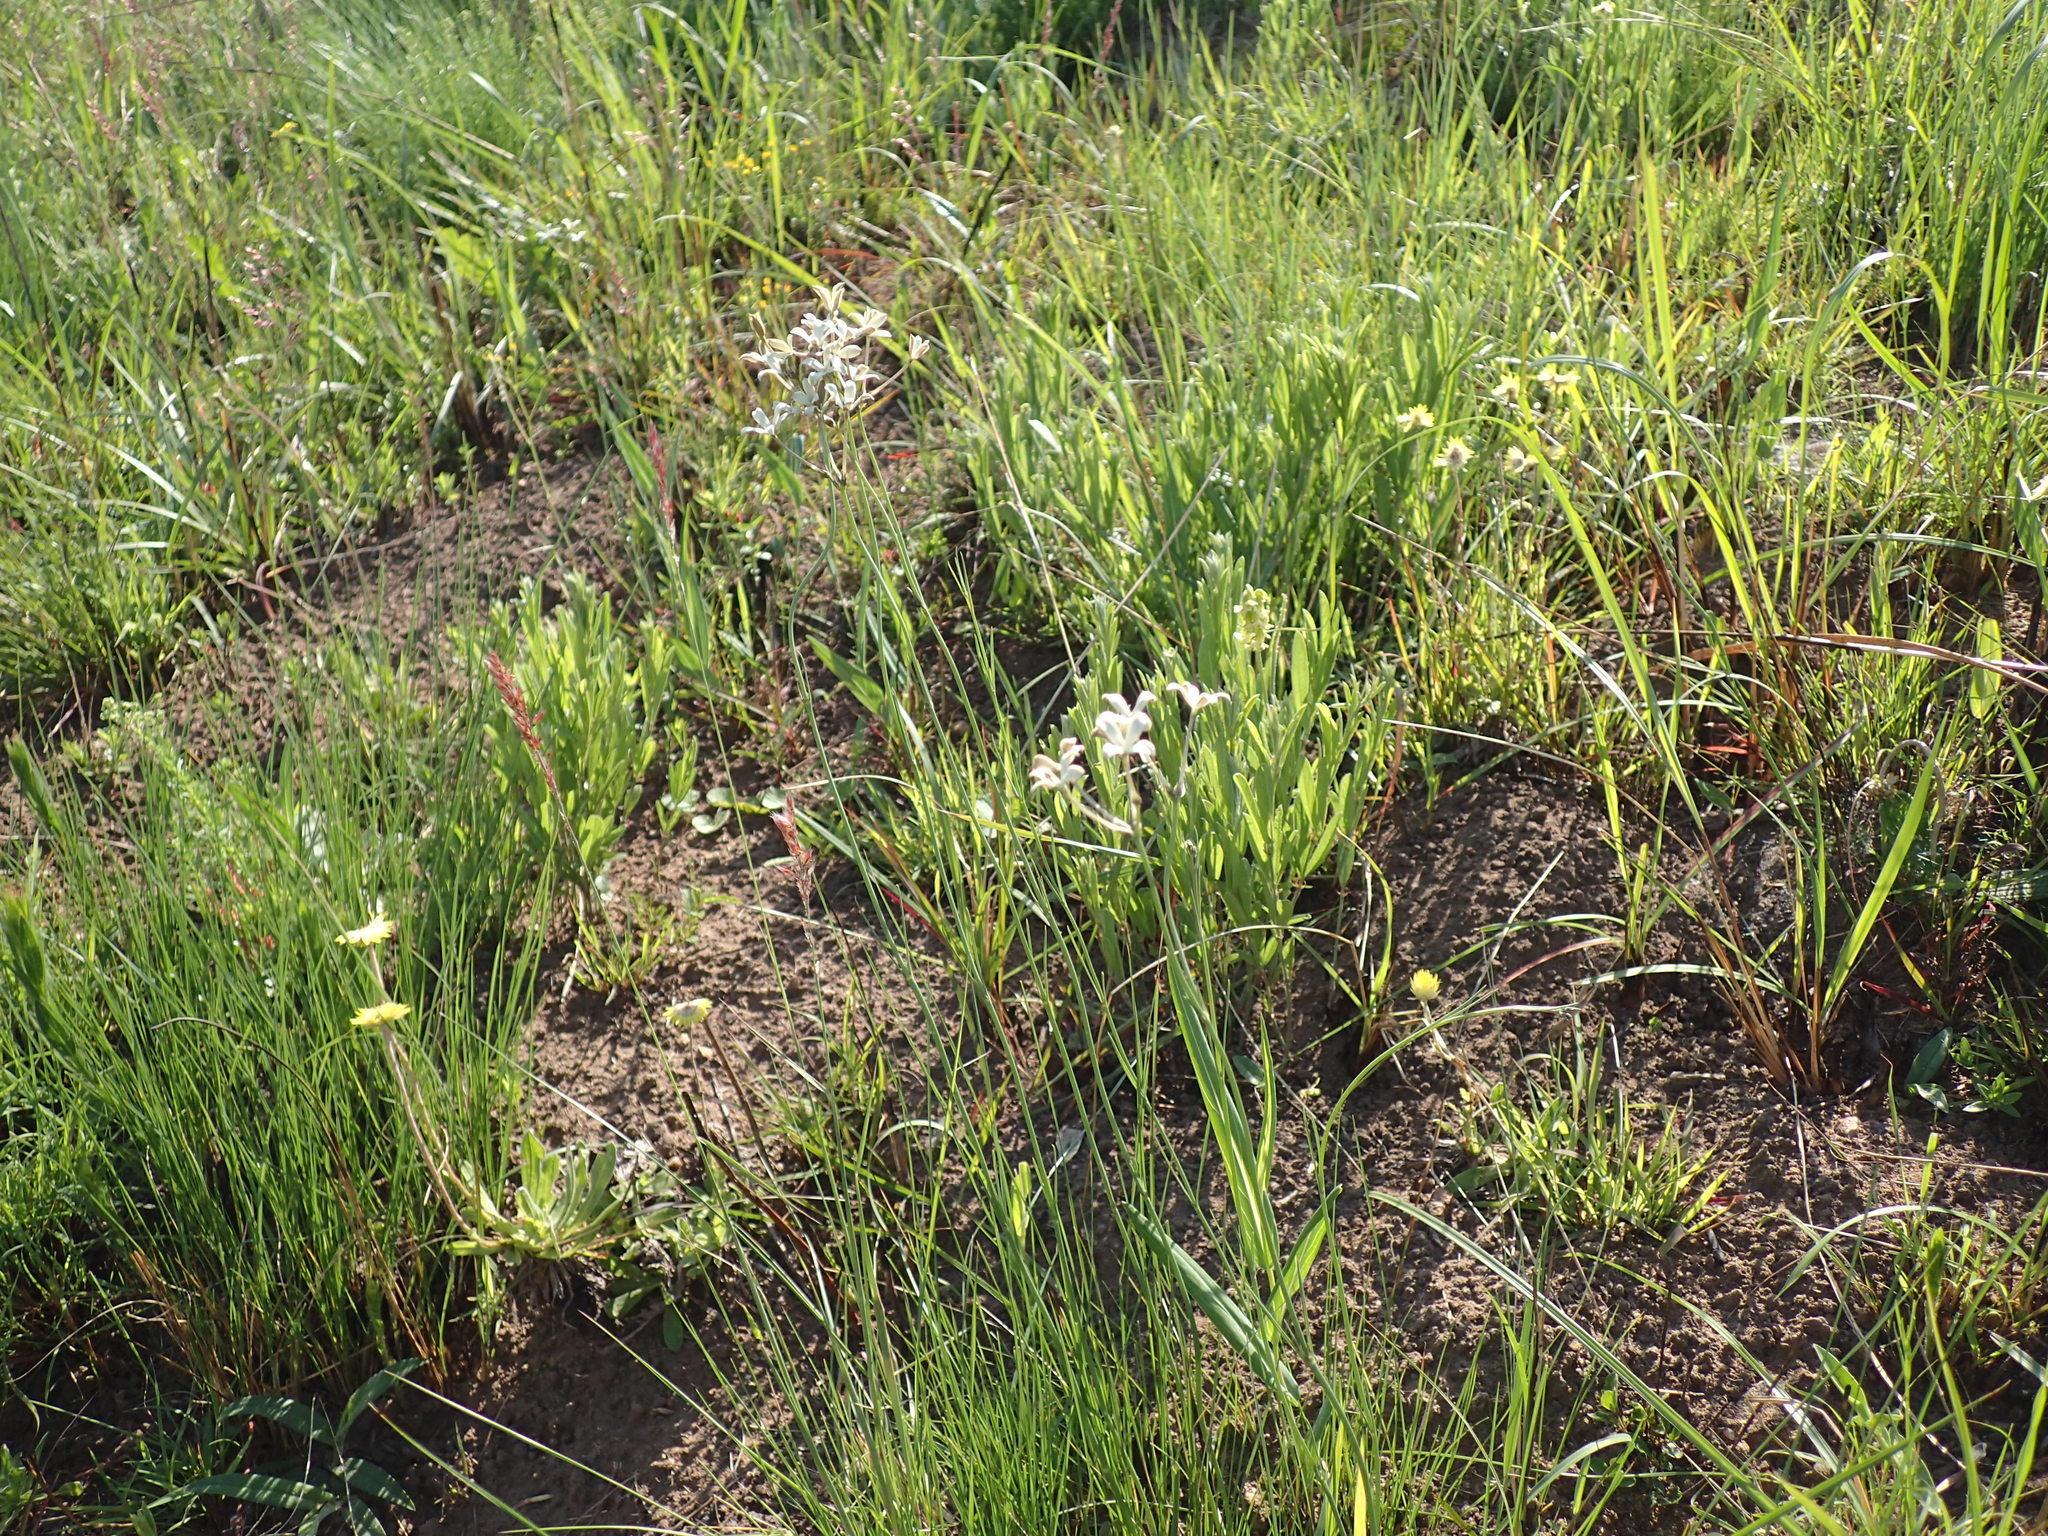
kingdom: Plantae
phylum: Tracheophyta
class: Magnoliopsida
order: Gentianales
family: Rubiaceae
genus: Kohautia
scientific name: Kohautia amatymbica
